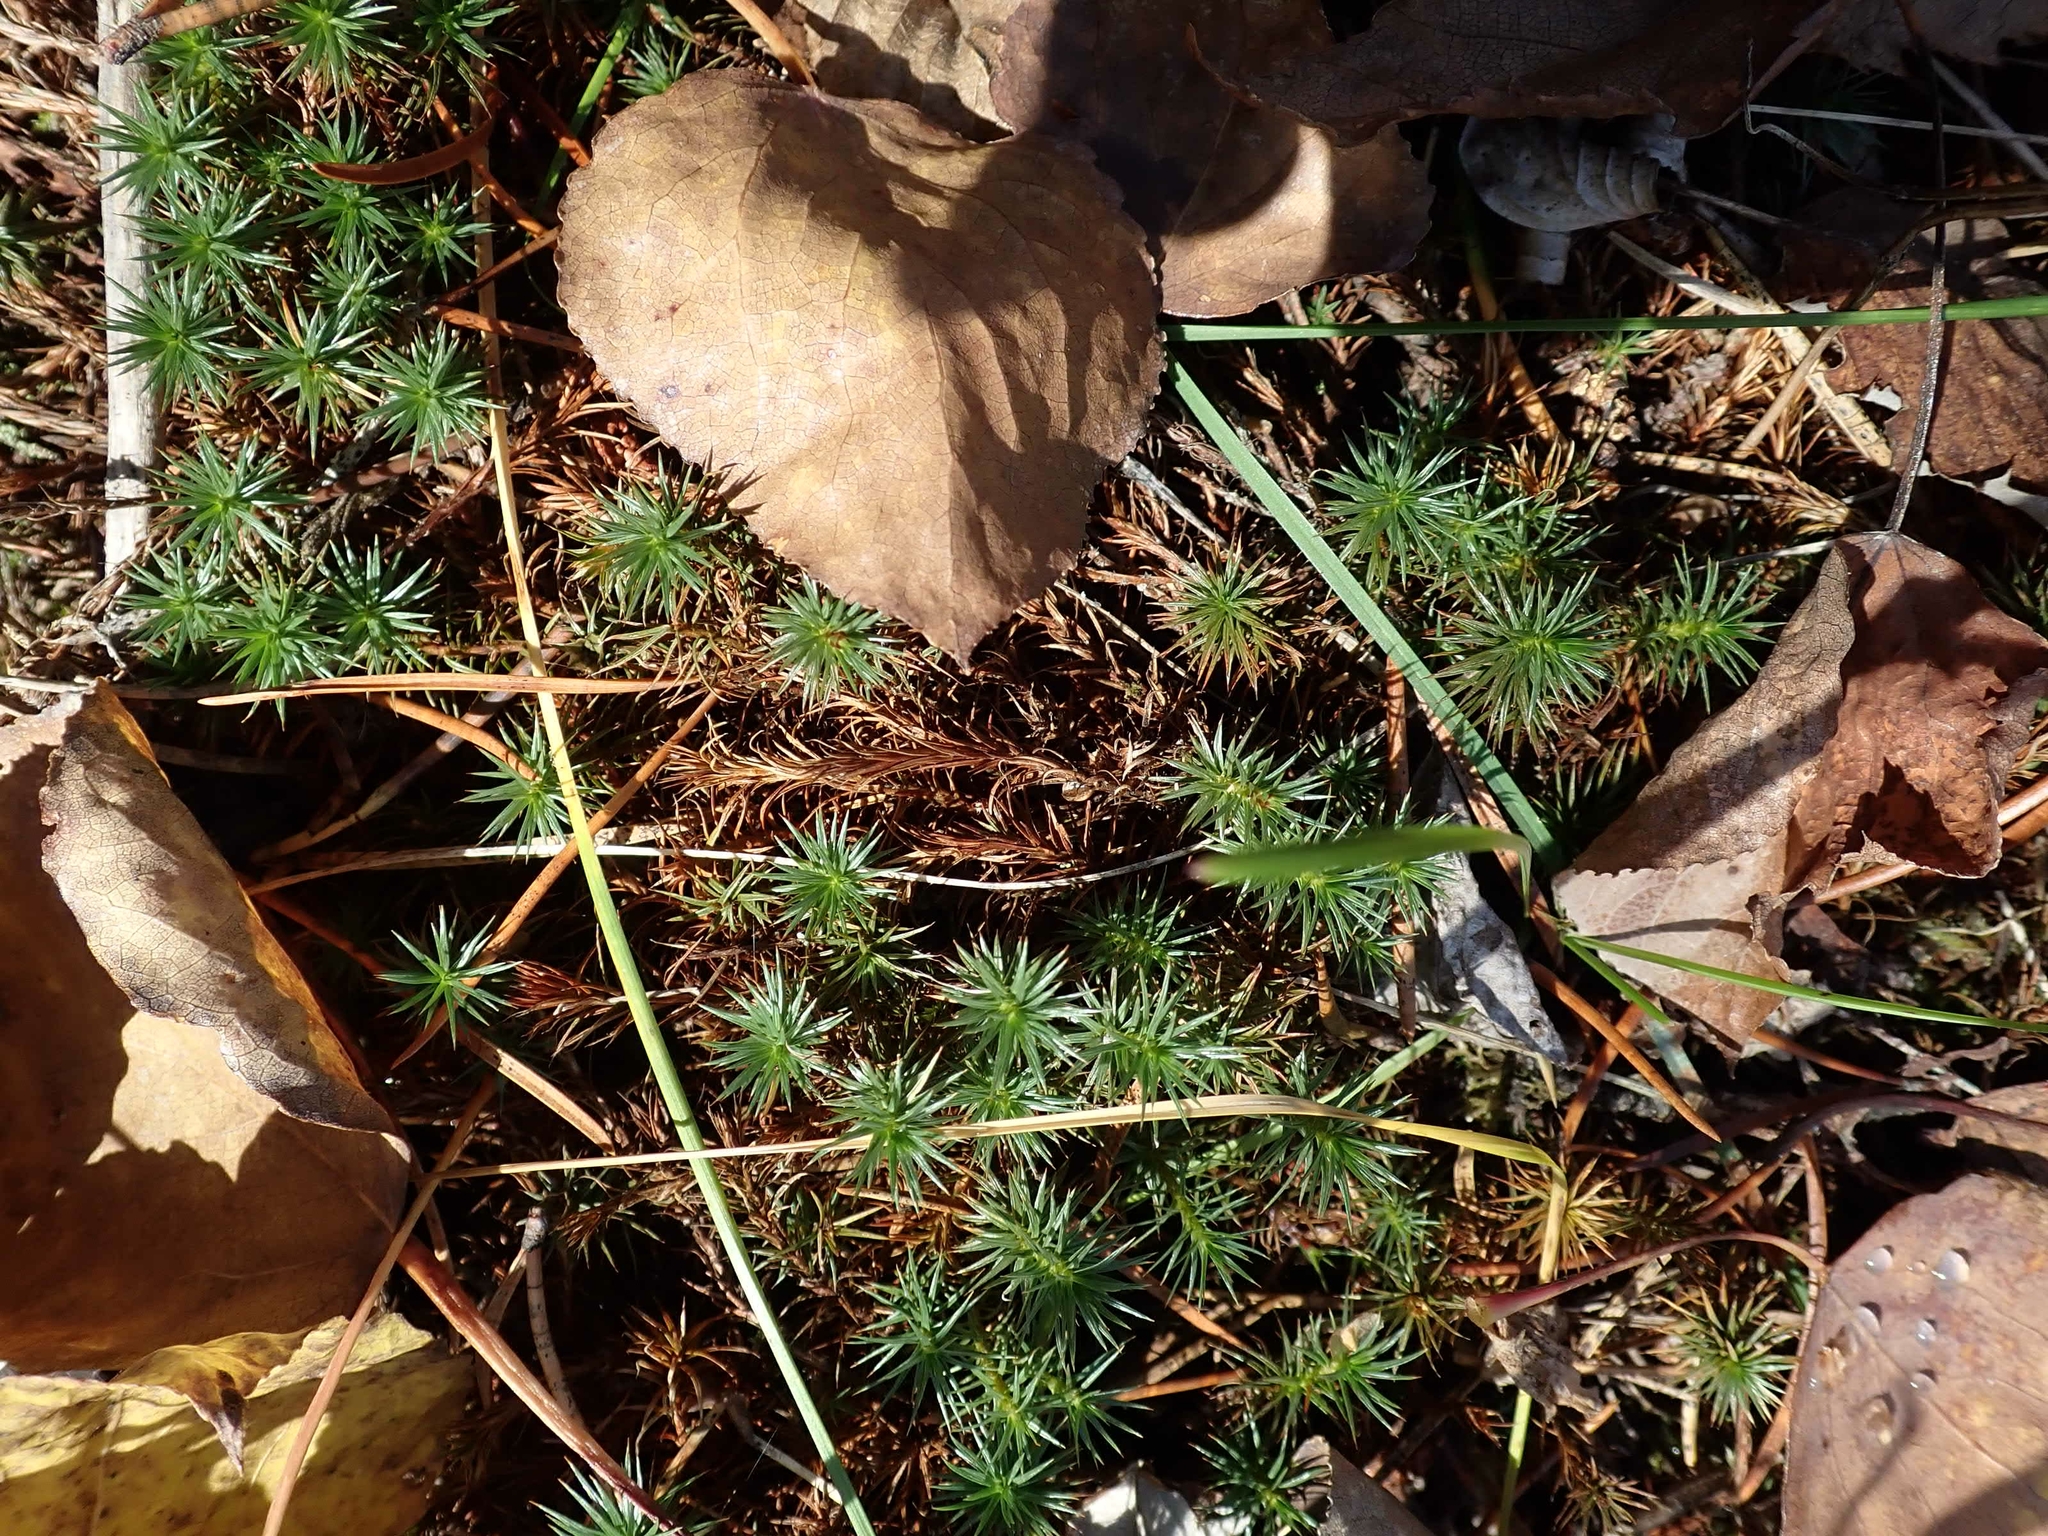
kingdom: Plantae
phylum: Bryophyta
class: Polytrichopsida
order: Polytrichales
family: Polytrichaceae
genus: Polytrichum
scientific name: Polytrichum juniperinum
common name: Juniper haircap moss
